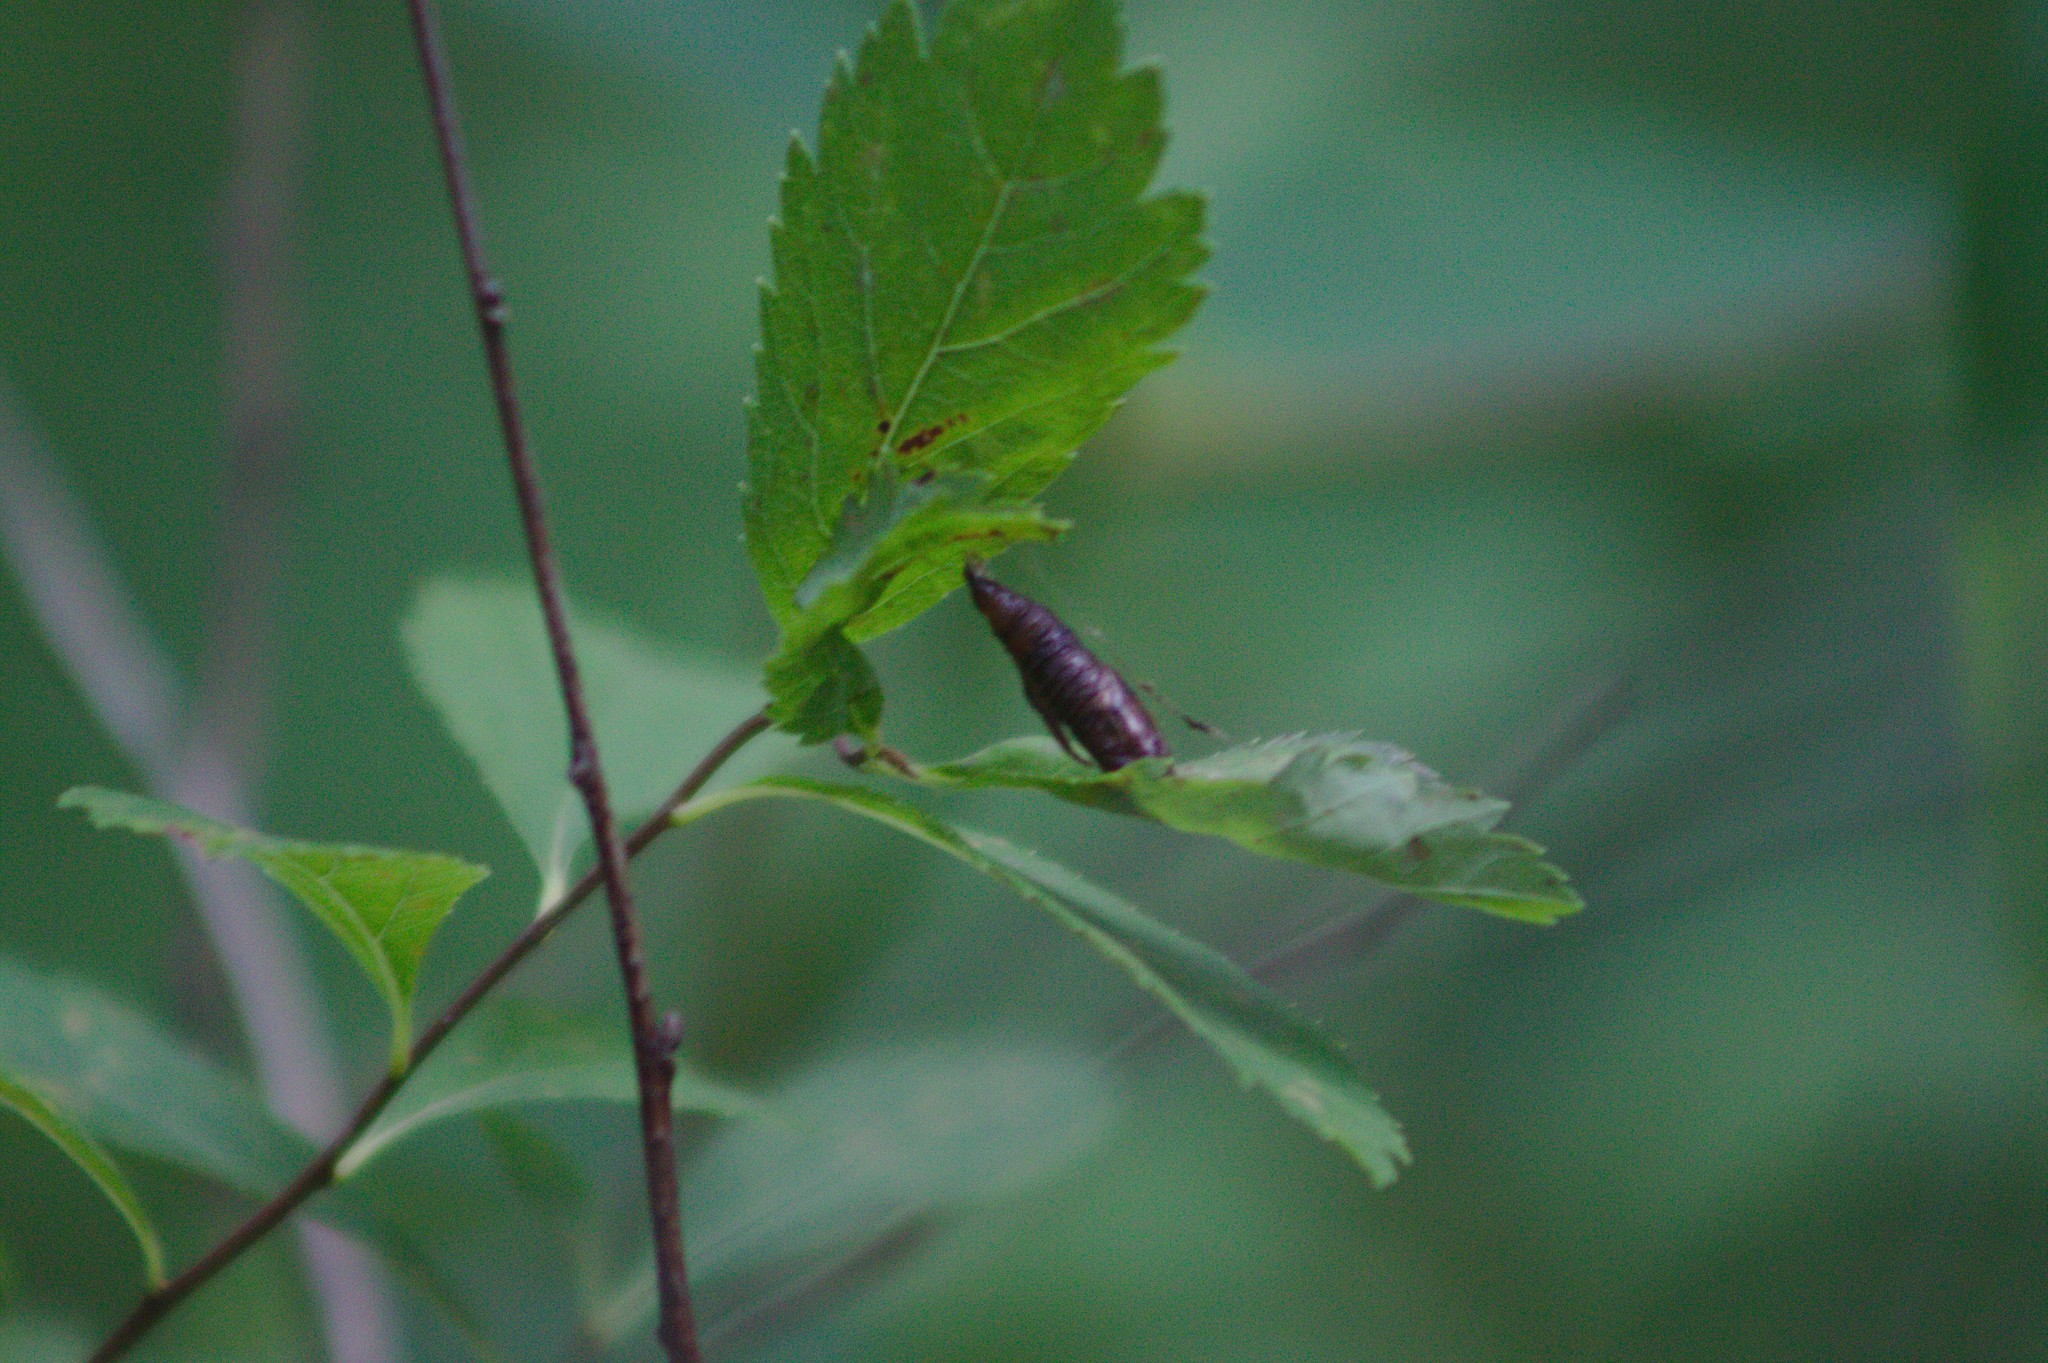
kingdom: Plantae
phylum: Tracheophyta
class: Magnoliopsida
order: Rosales
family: Rosaceae
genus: Spiraea
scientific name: Spiraea alba
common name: Pale bridewort
